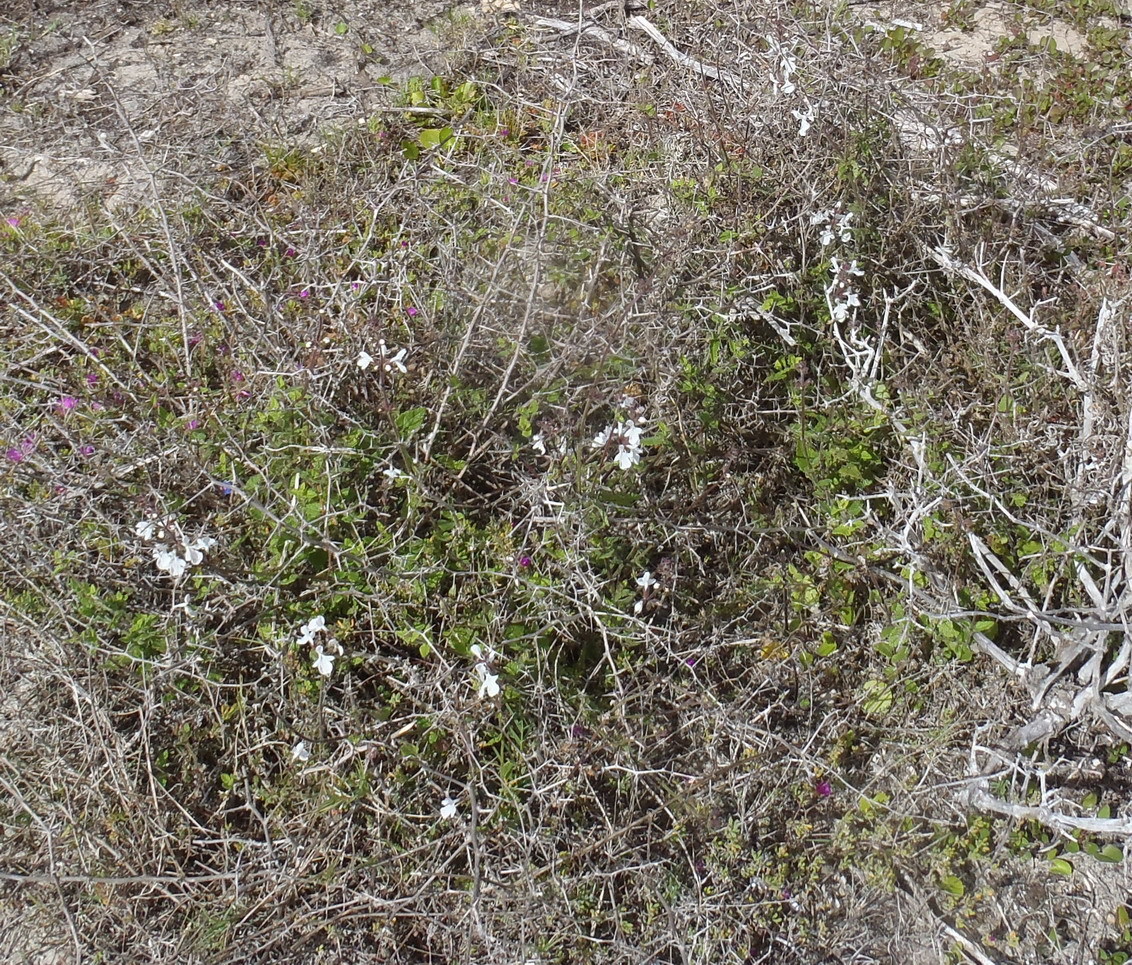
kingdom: Plantae
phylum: Tracheophyta
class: Magnoliopsida
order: Lamiales
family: Lamiaceae
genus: Stachys
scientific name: Stachys aethiopica
